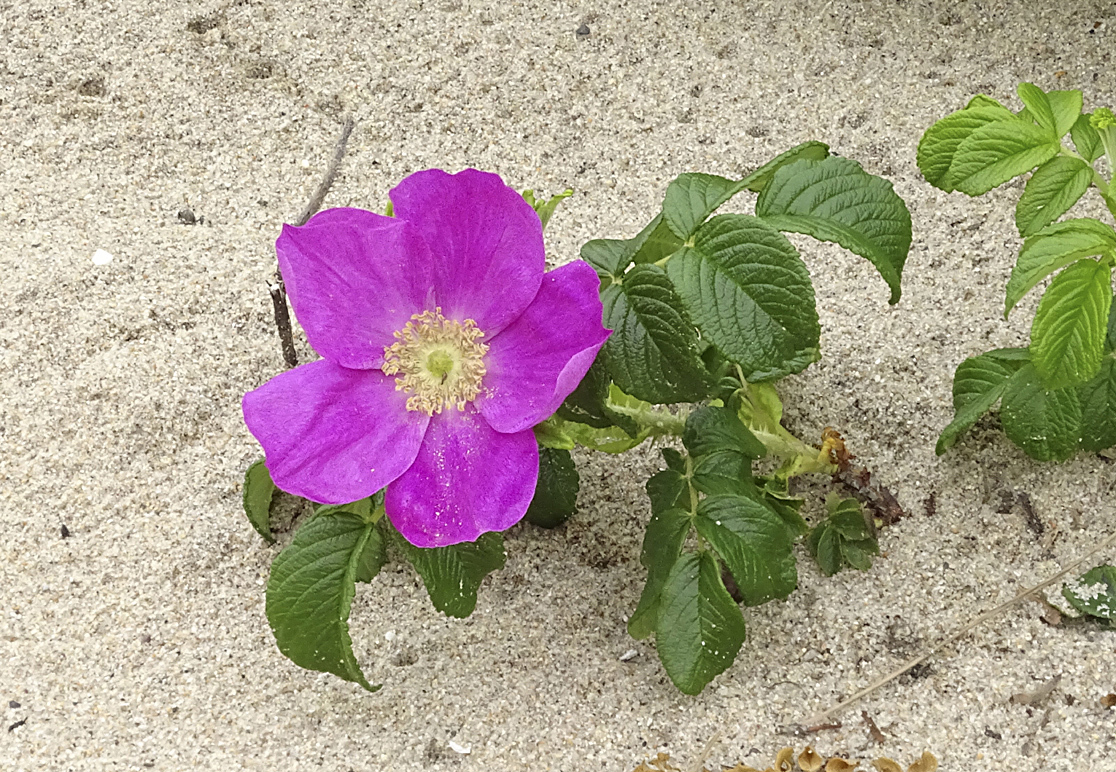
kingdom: Plantae
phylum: Tracheophyta
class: Magnoliopsida
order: Rosales
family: Rosaceae
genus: Rosa
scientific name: Rosa rugosa
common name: Japanese rose
